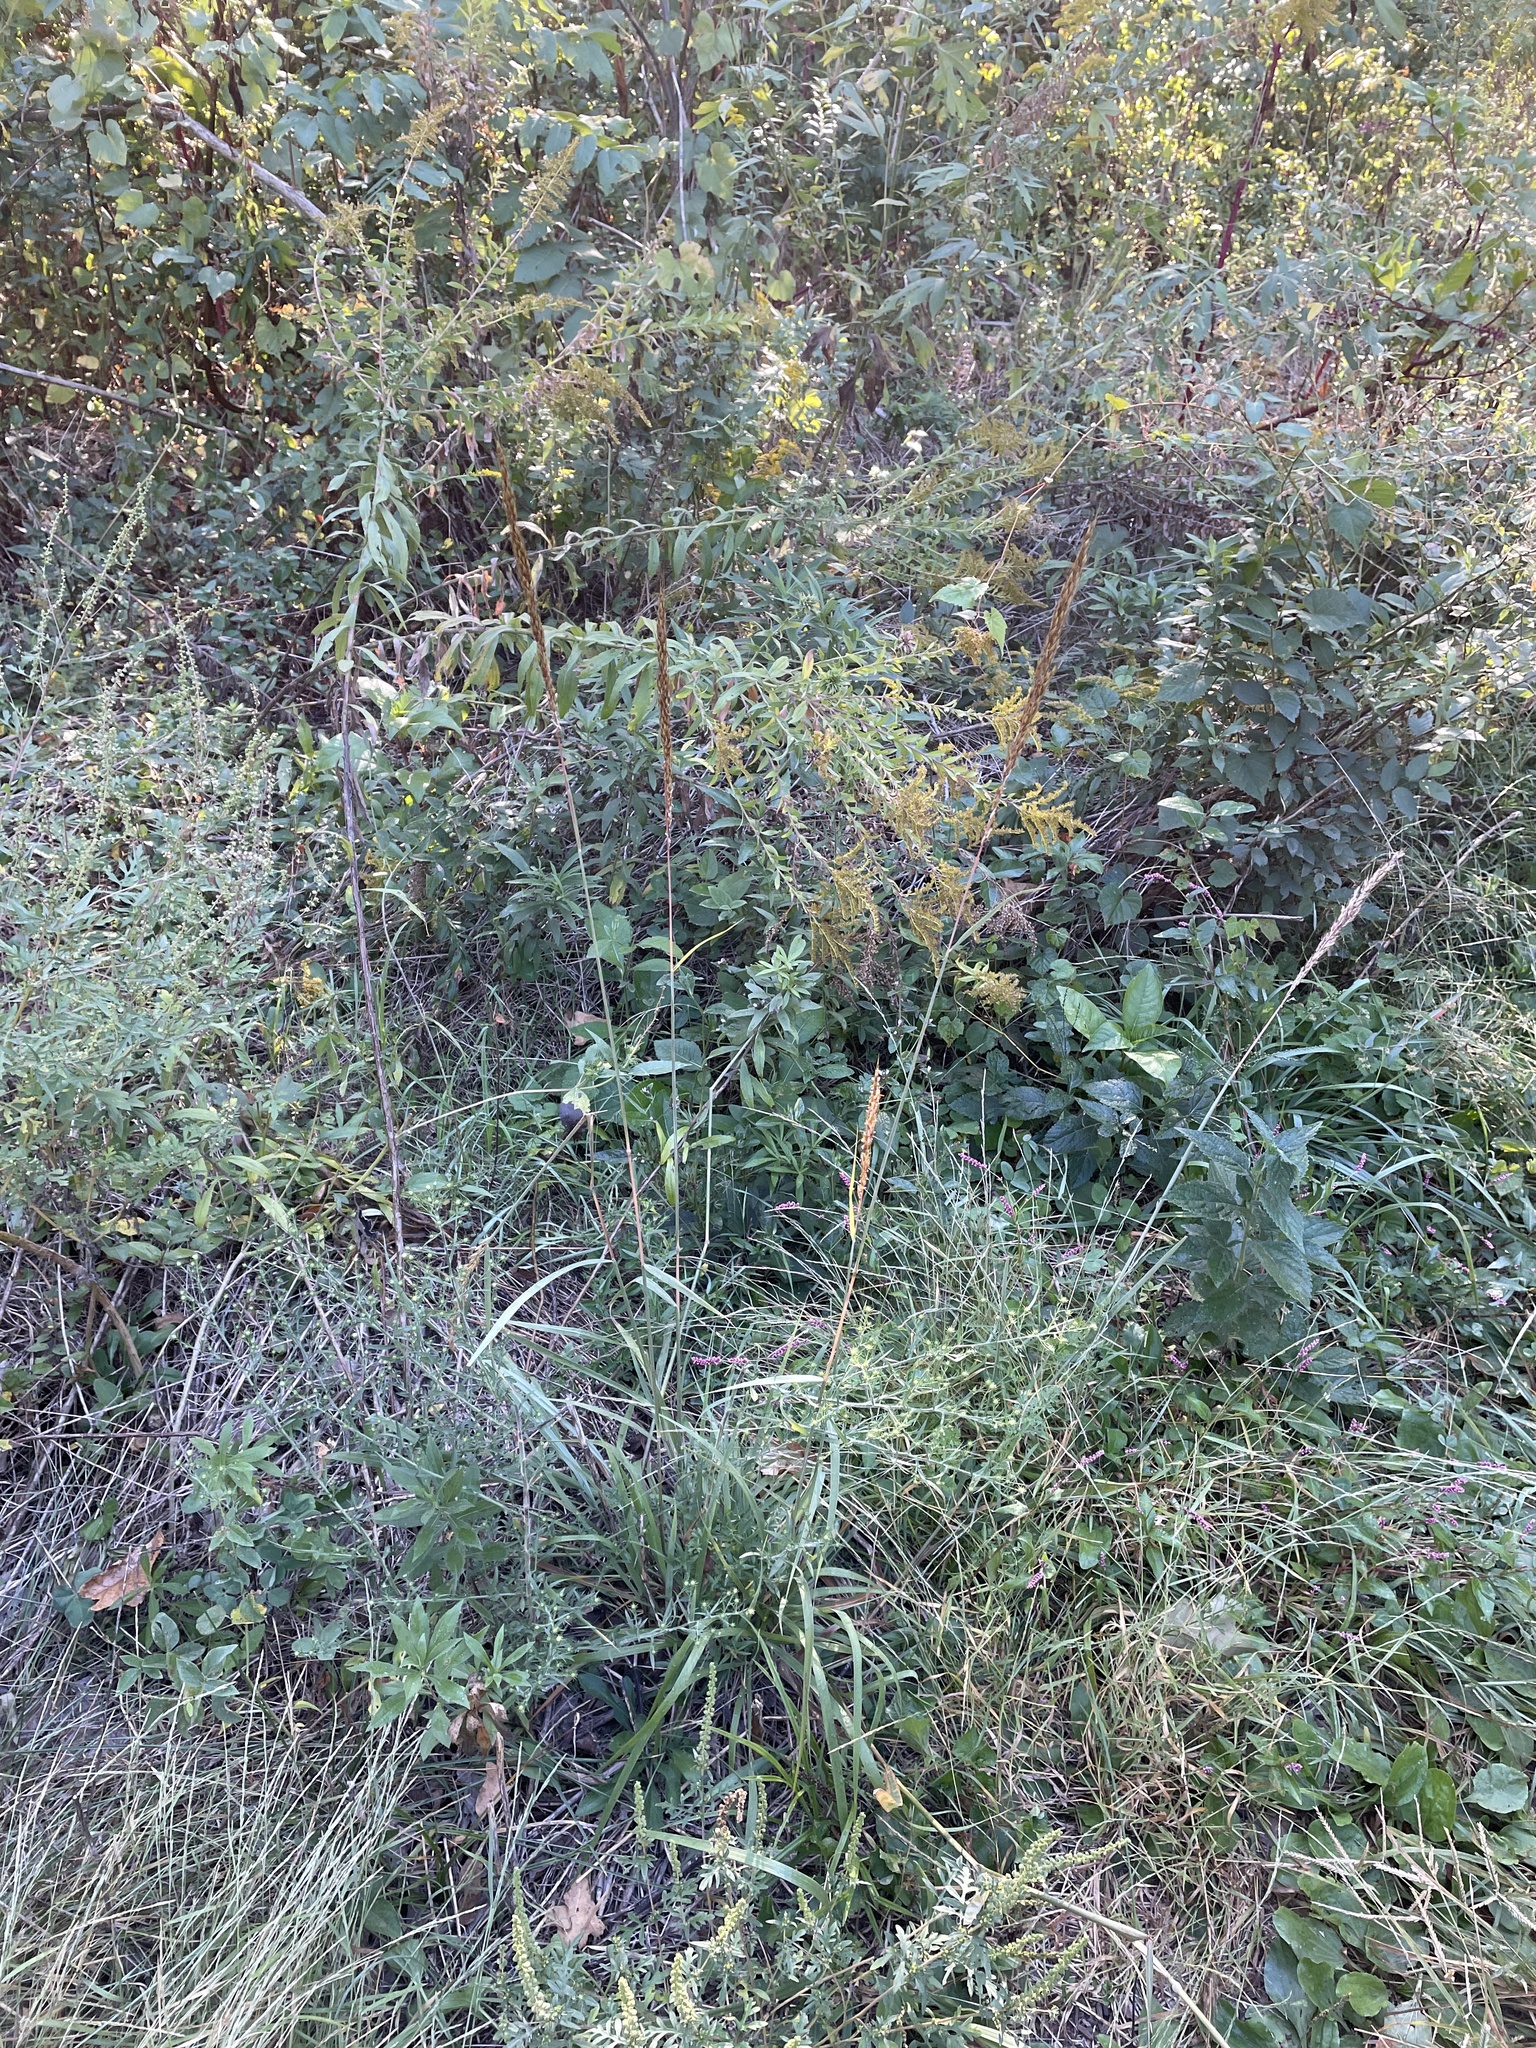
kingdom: Plantae
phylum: Tracheophyta
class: Liliopsida
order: Poales
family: Poaceae
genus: Sorghastrum
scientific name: Sorghastrum nutans
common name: Indian grass
